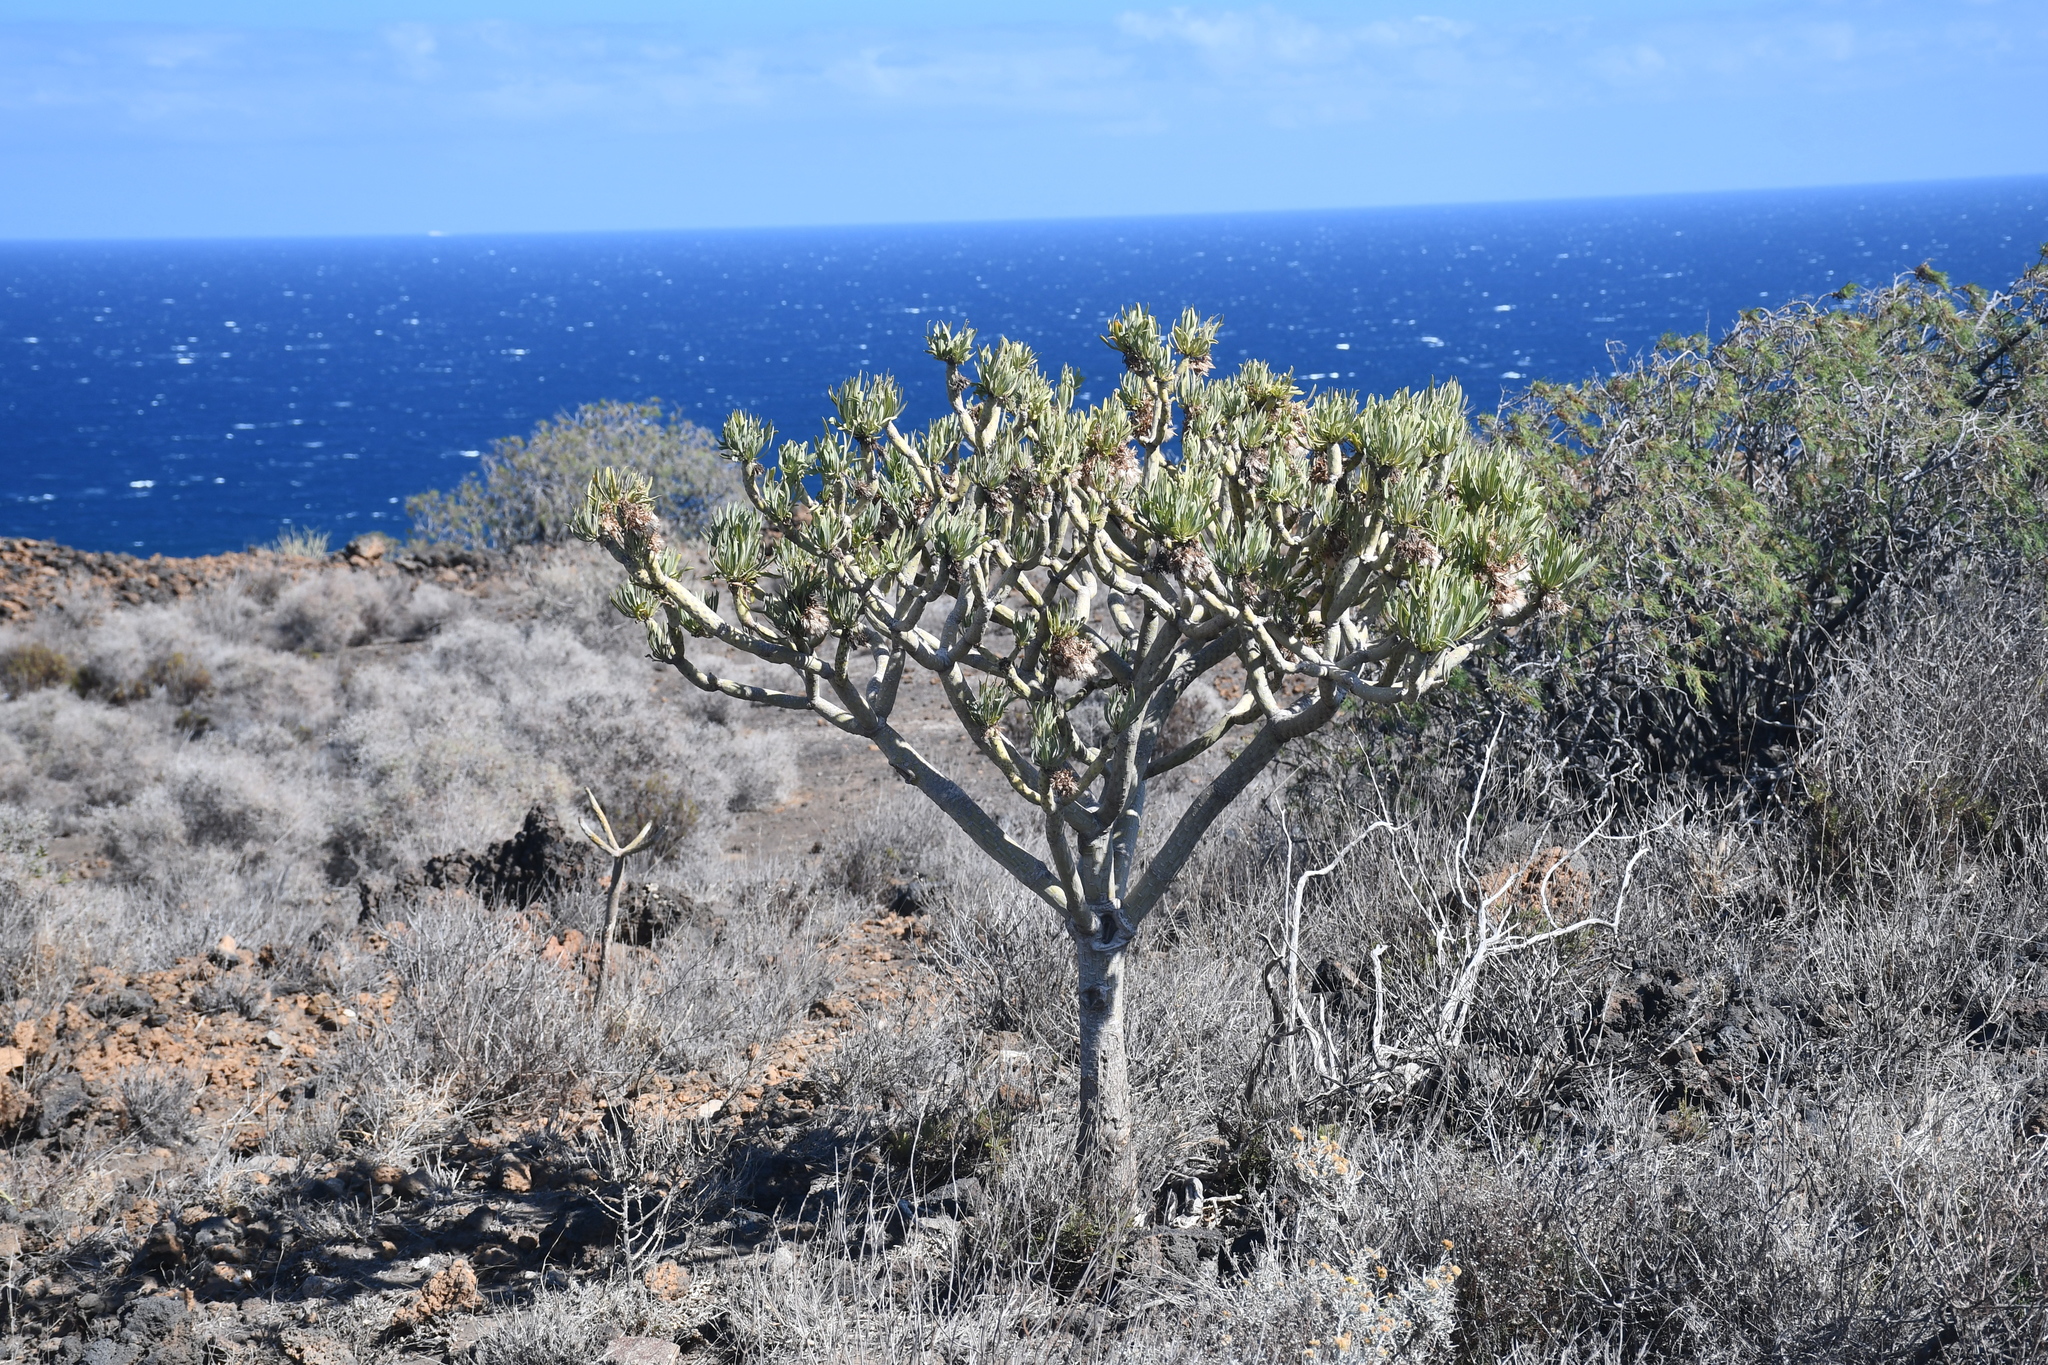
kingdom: Plantae
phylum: Tracheophyta
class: Magnoliopsida
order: Asterales
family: Asteraceae
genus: Kleinia
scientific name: Kleinia neriifolia
